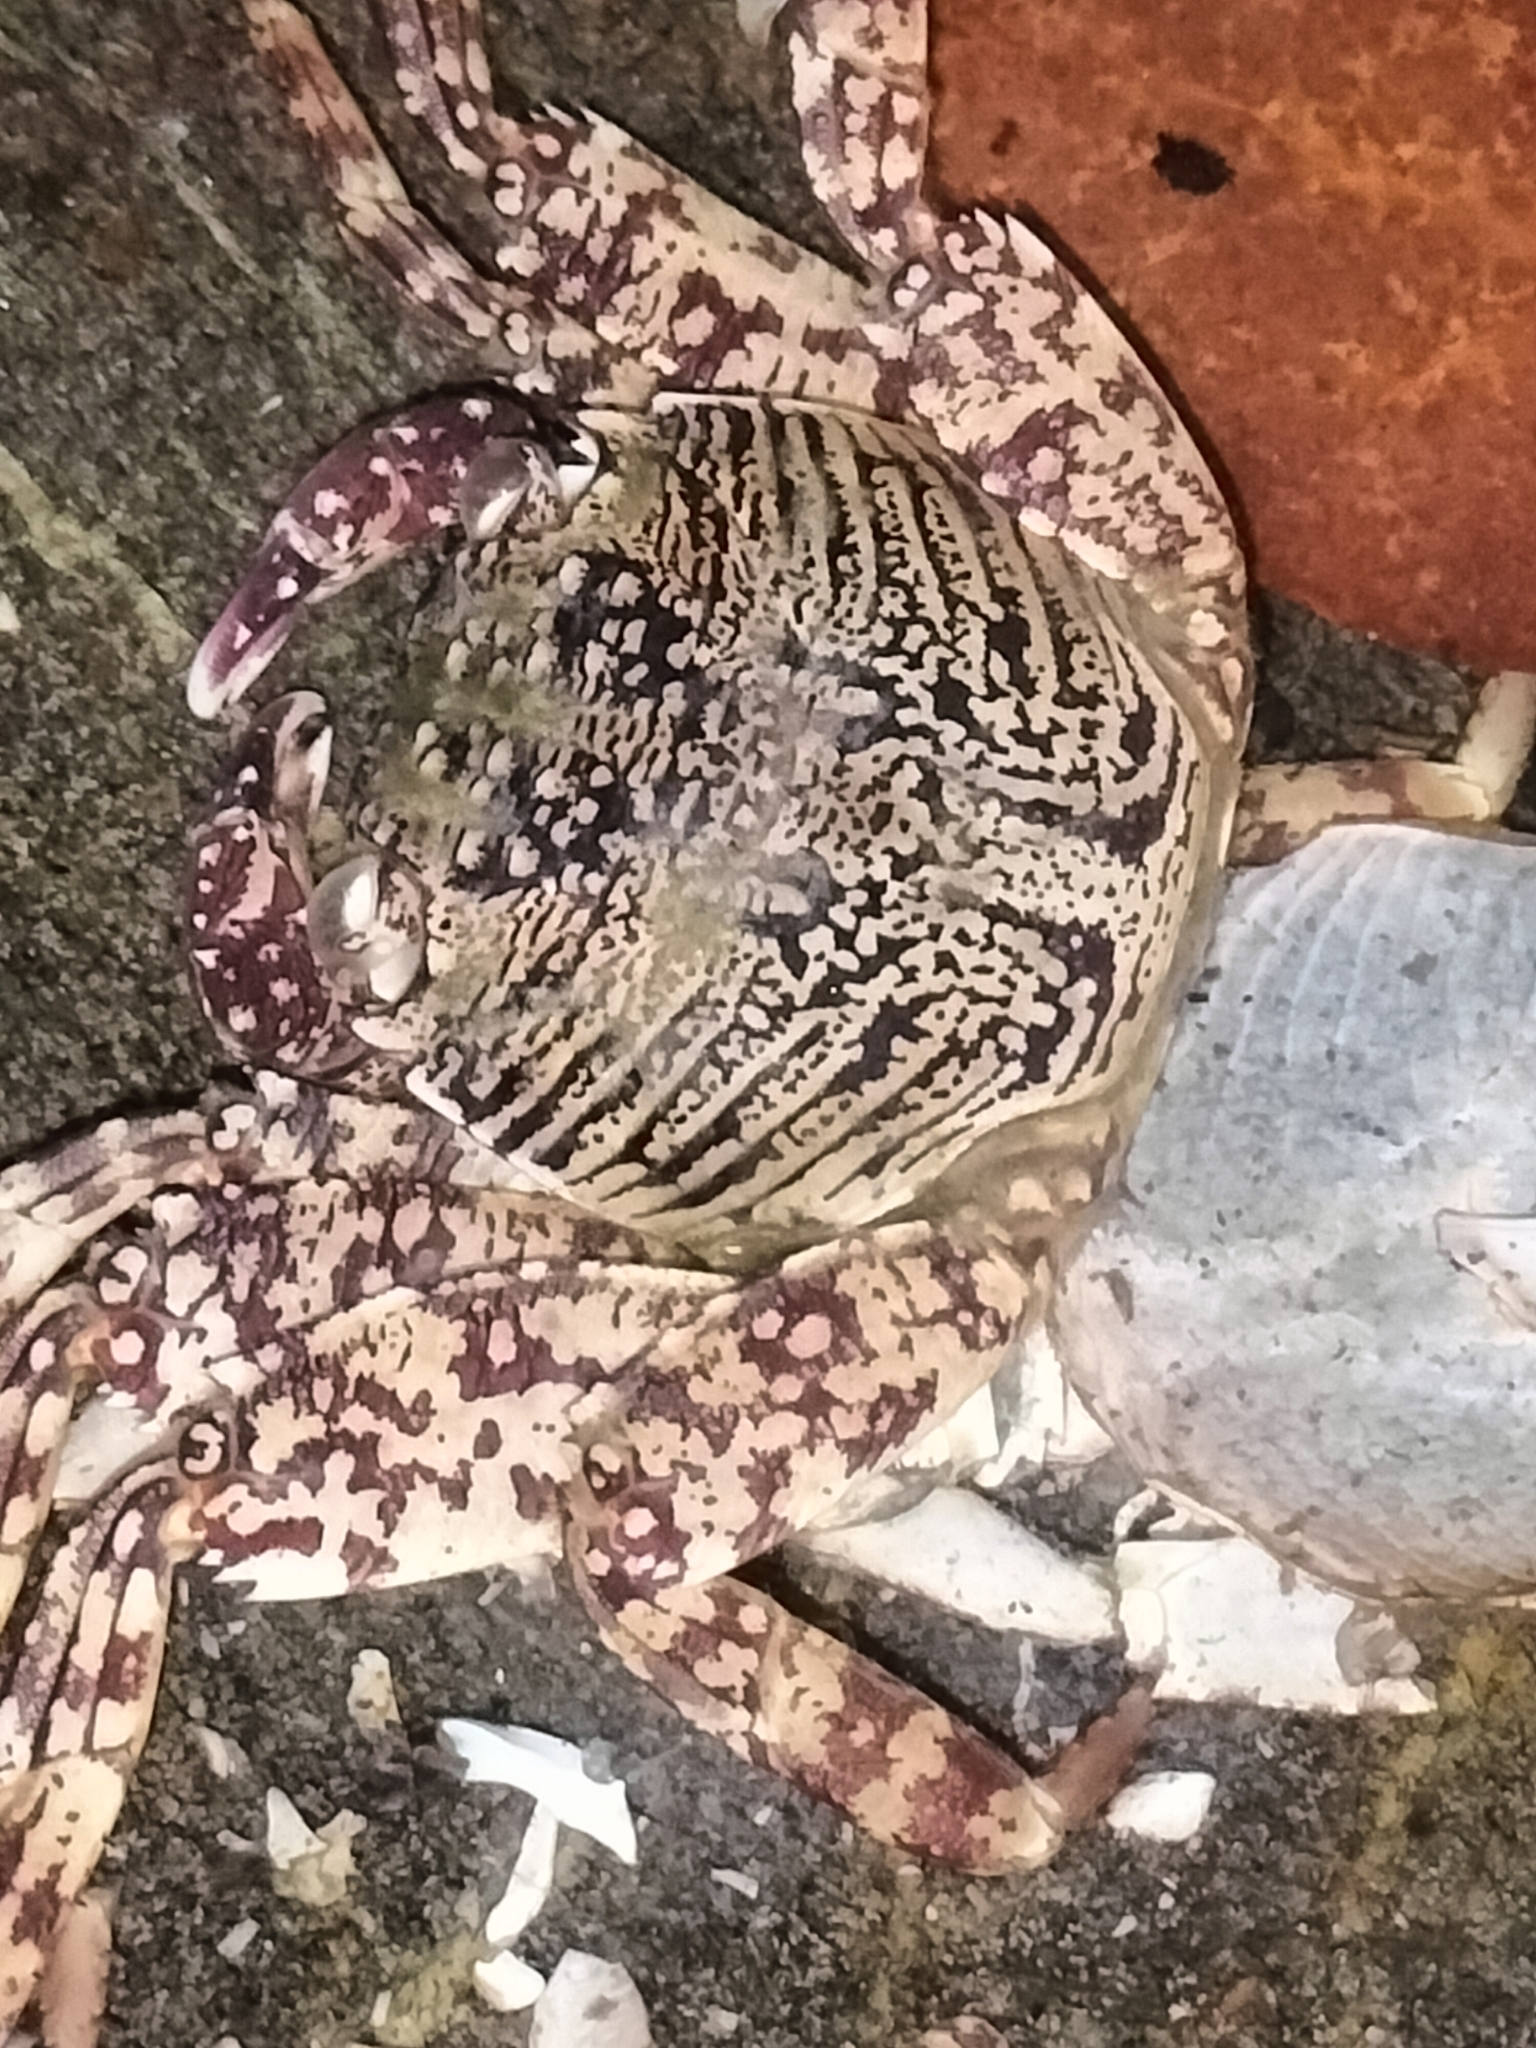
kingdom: Animalia
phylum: Arthropoda
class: Malacostraca
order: Decapoda
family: Grapsidae
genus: Grapsus
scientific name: Grapsus albolineatus
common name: Mottled lightfoot crab
